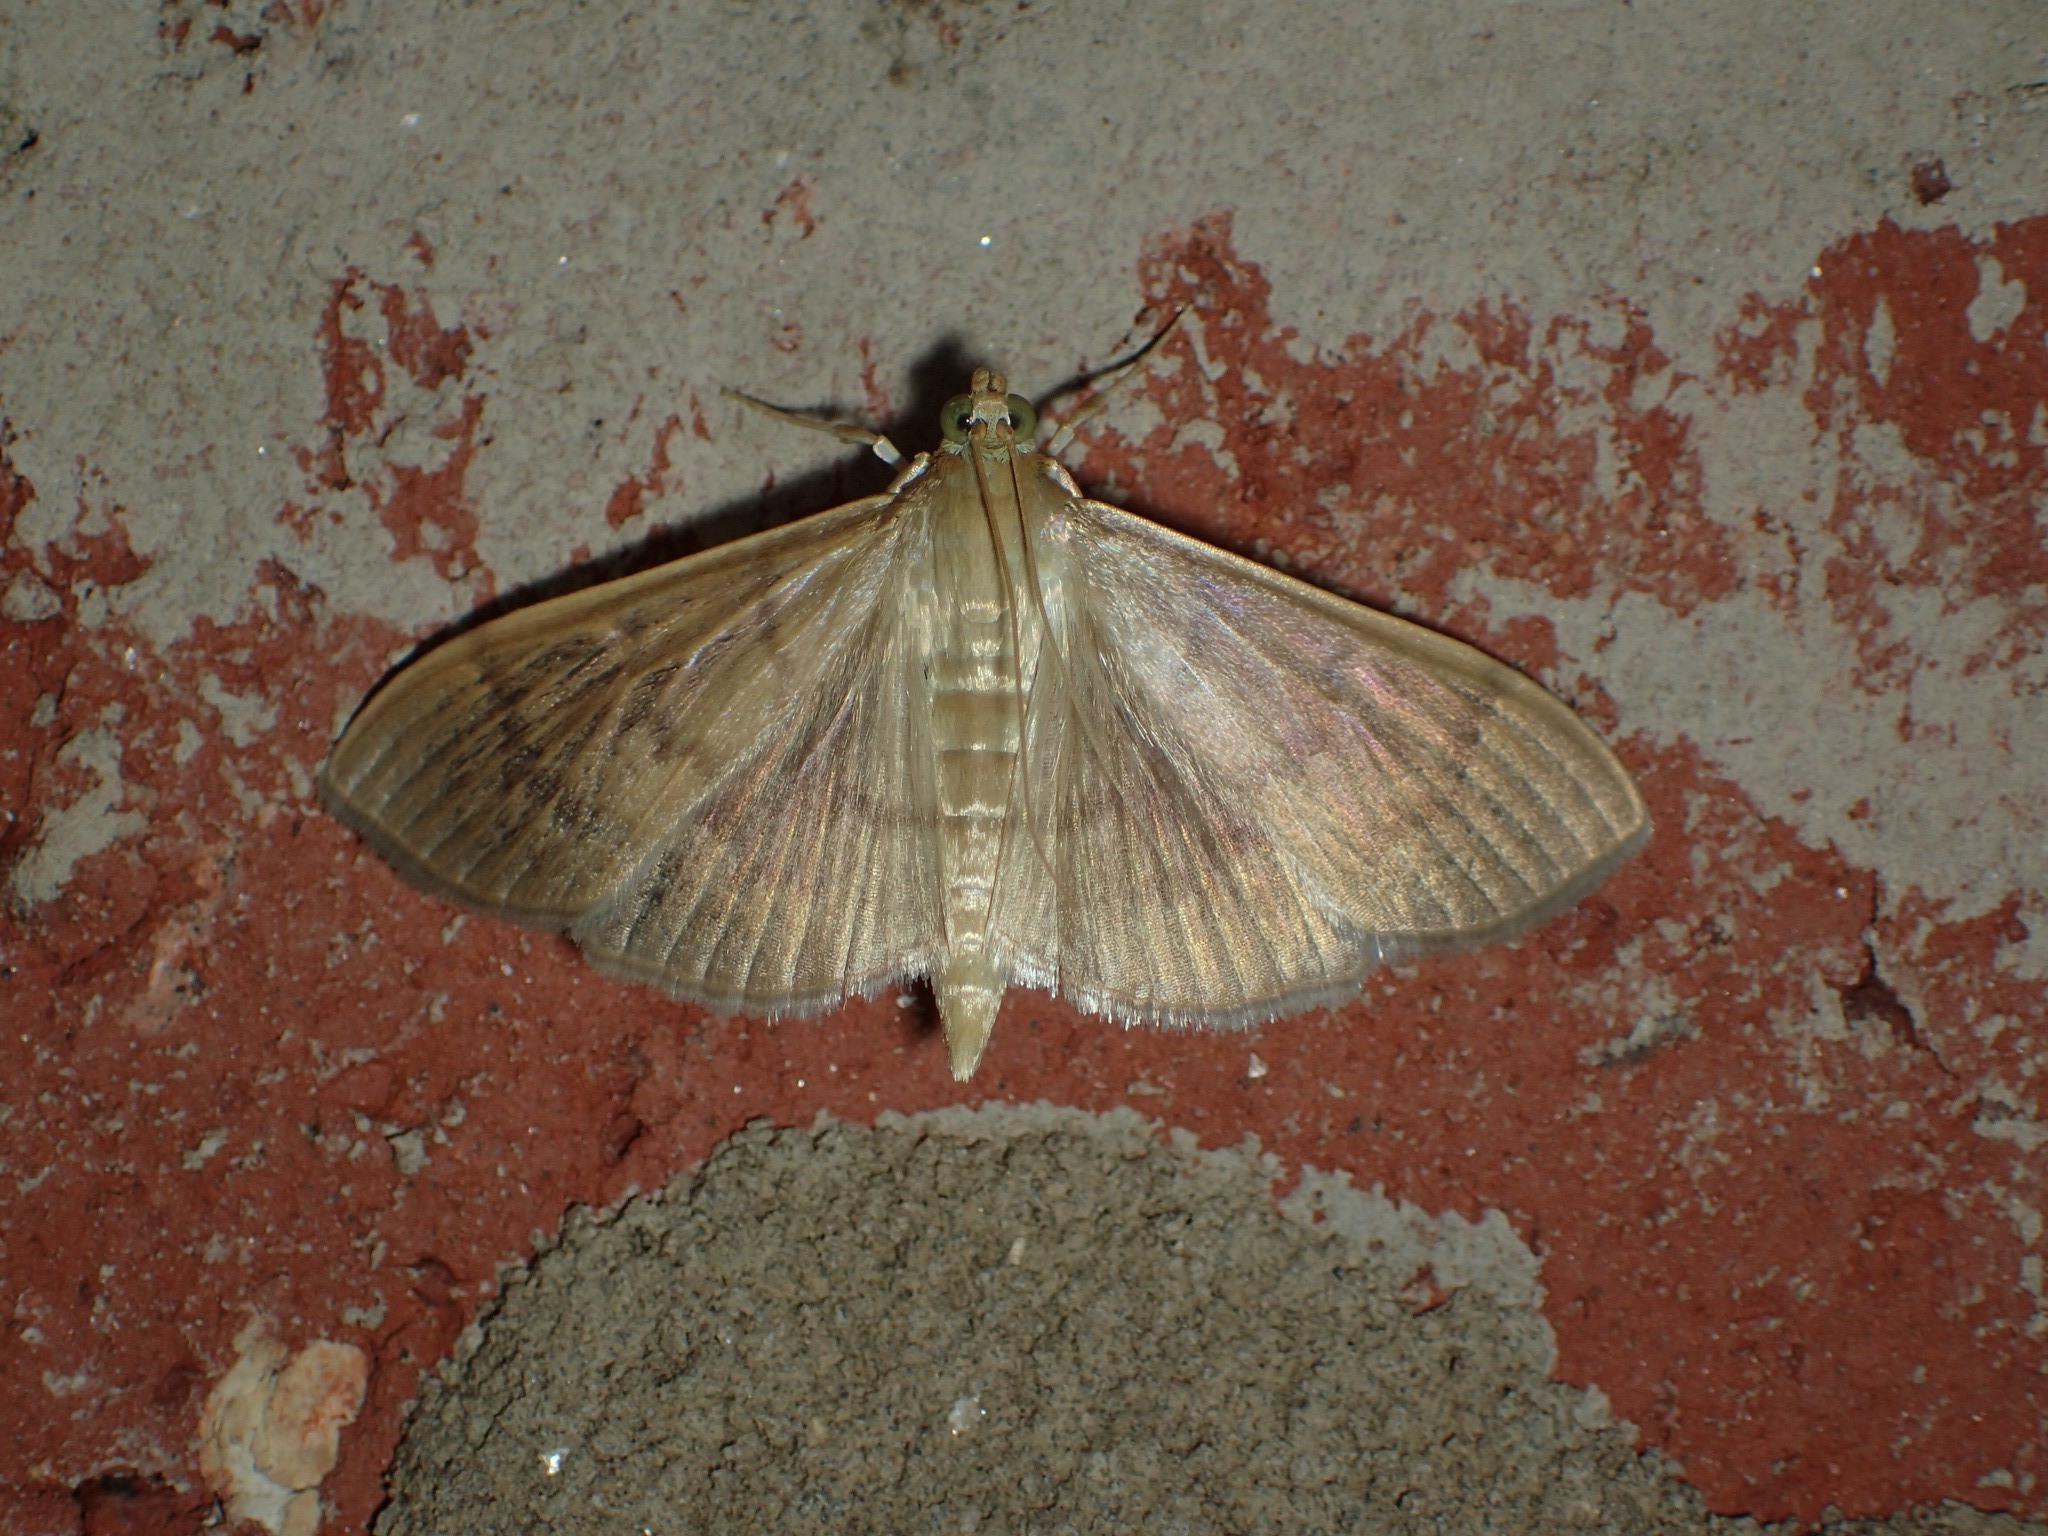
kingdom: Animalia
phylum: Arthropoda
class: Insecta
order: Lepidoptera
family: Crambidae
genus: Pleuroptya
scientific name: Pleuroptya silicalis
